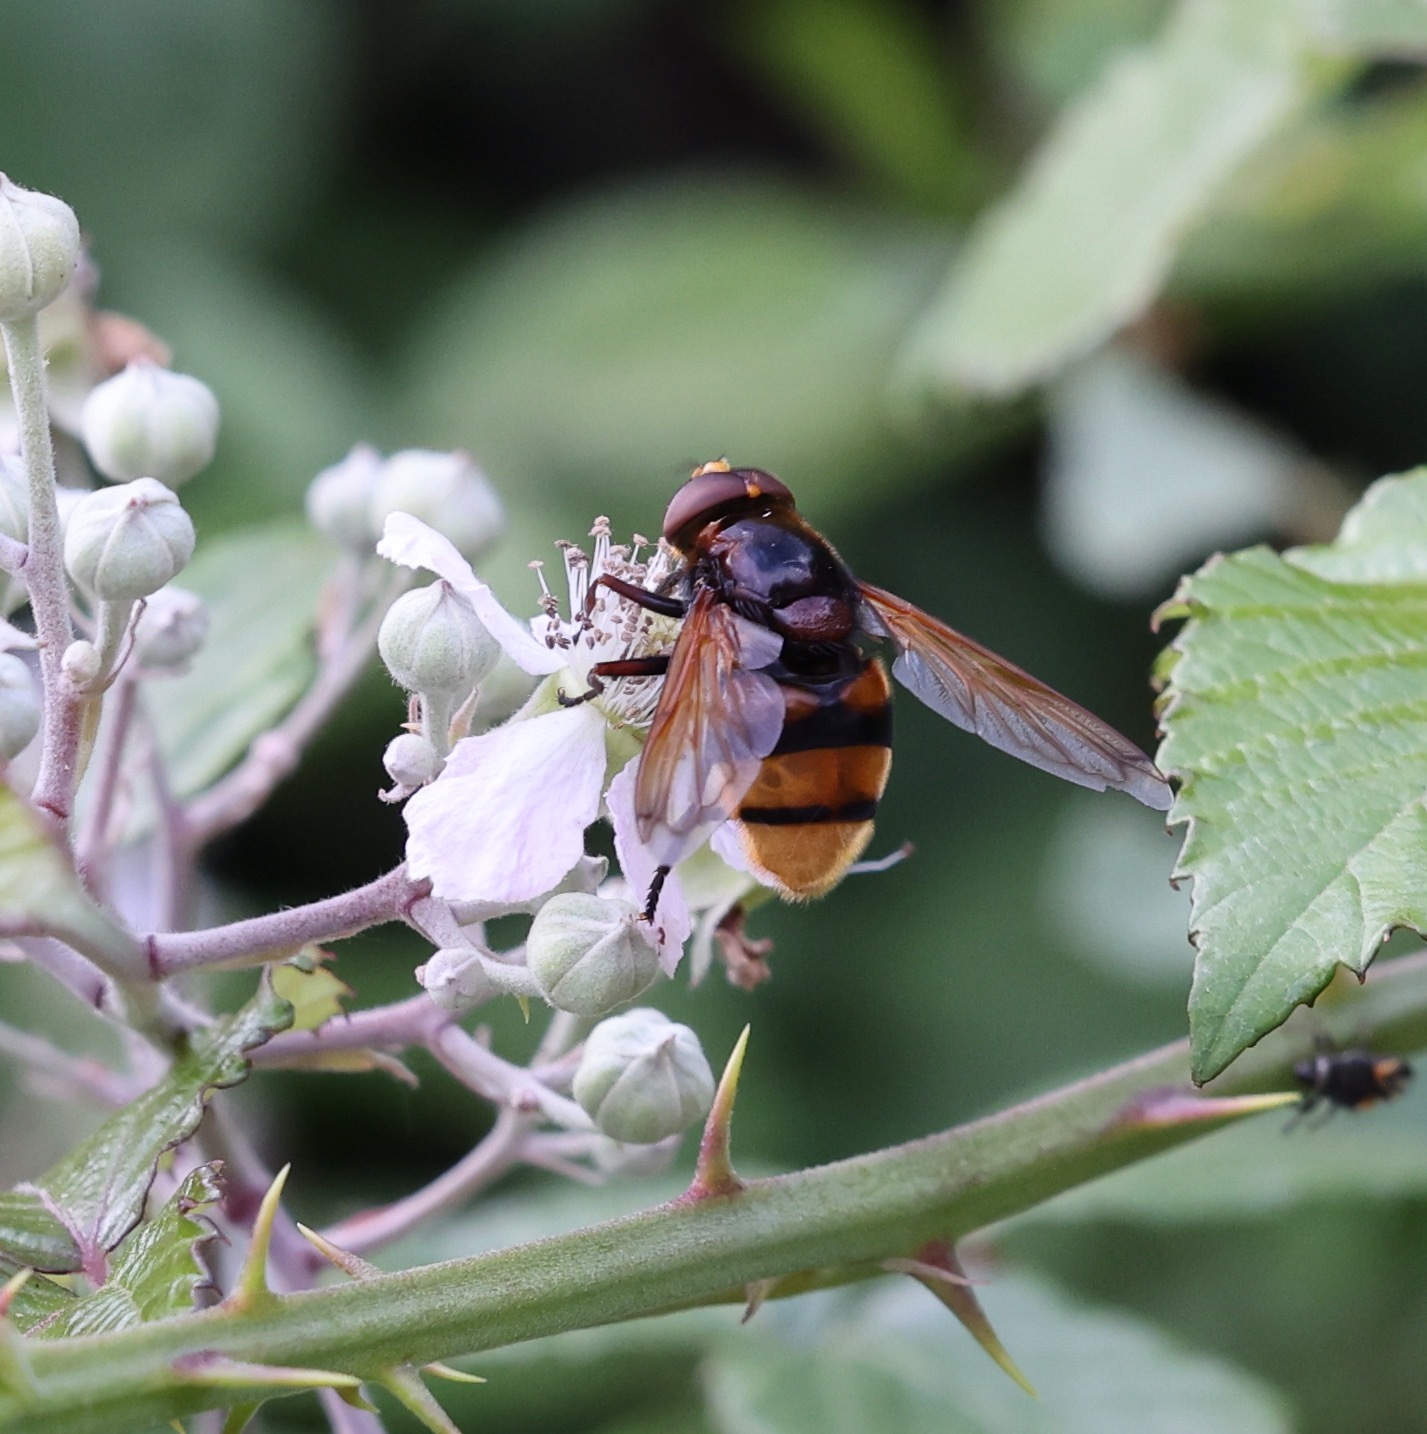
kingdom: Animalia
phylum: Arthropoda
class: Insecta
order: Diptera
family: Syrphidae
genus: Volucella
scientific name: Volucella zonaria
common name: Hornet hoverfly
